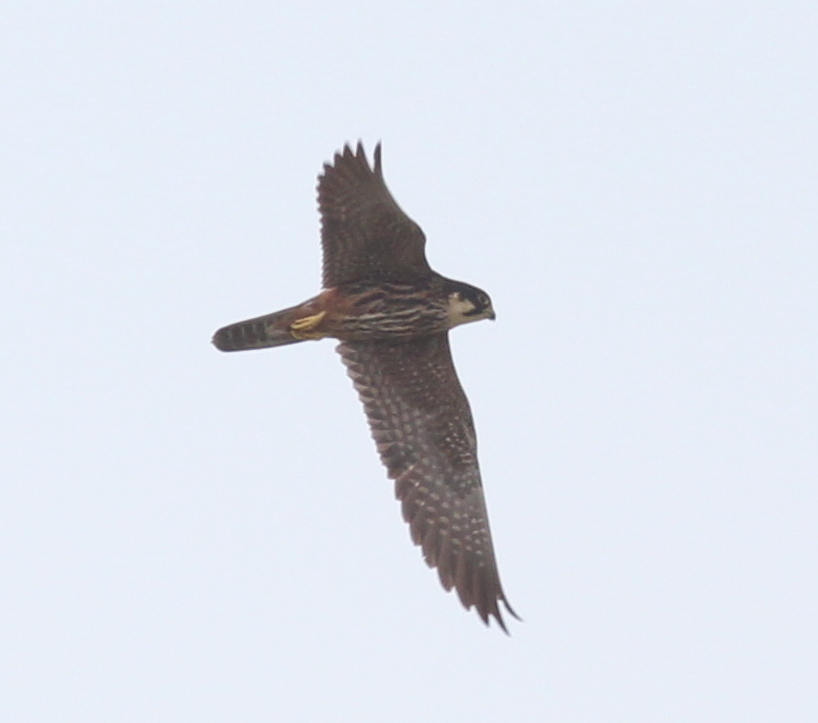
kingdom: Animalia
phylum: Chordata
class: Aves
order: Falconiformes
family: Falconidae
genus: Falco
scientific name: Falco subbuteo
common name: Eurasian hobby
